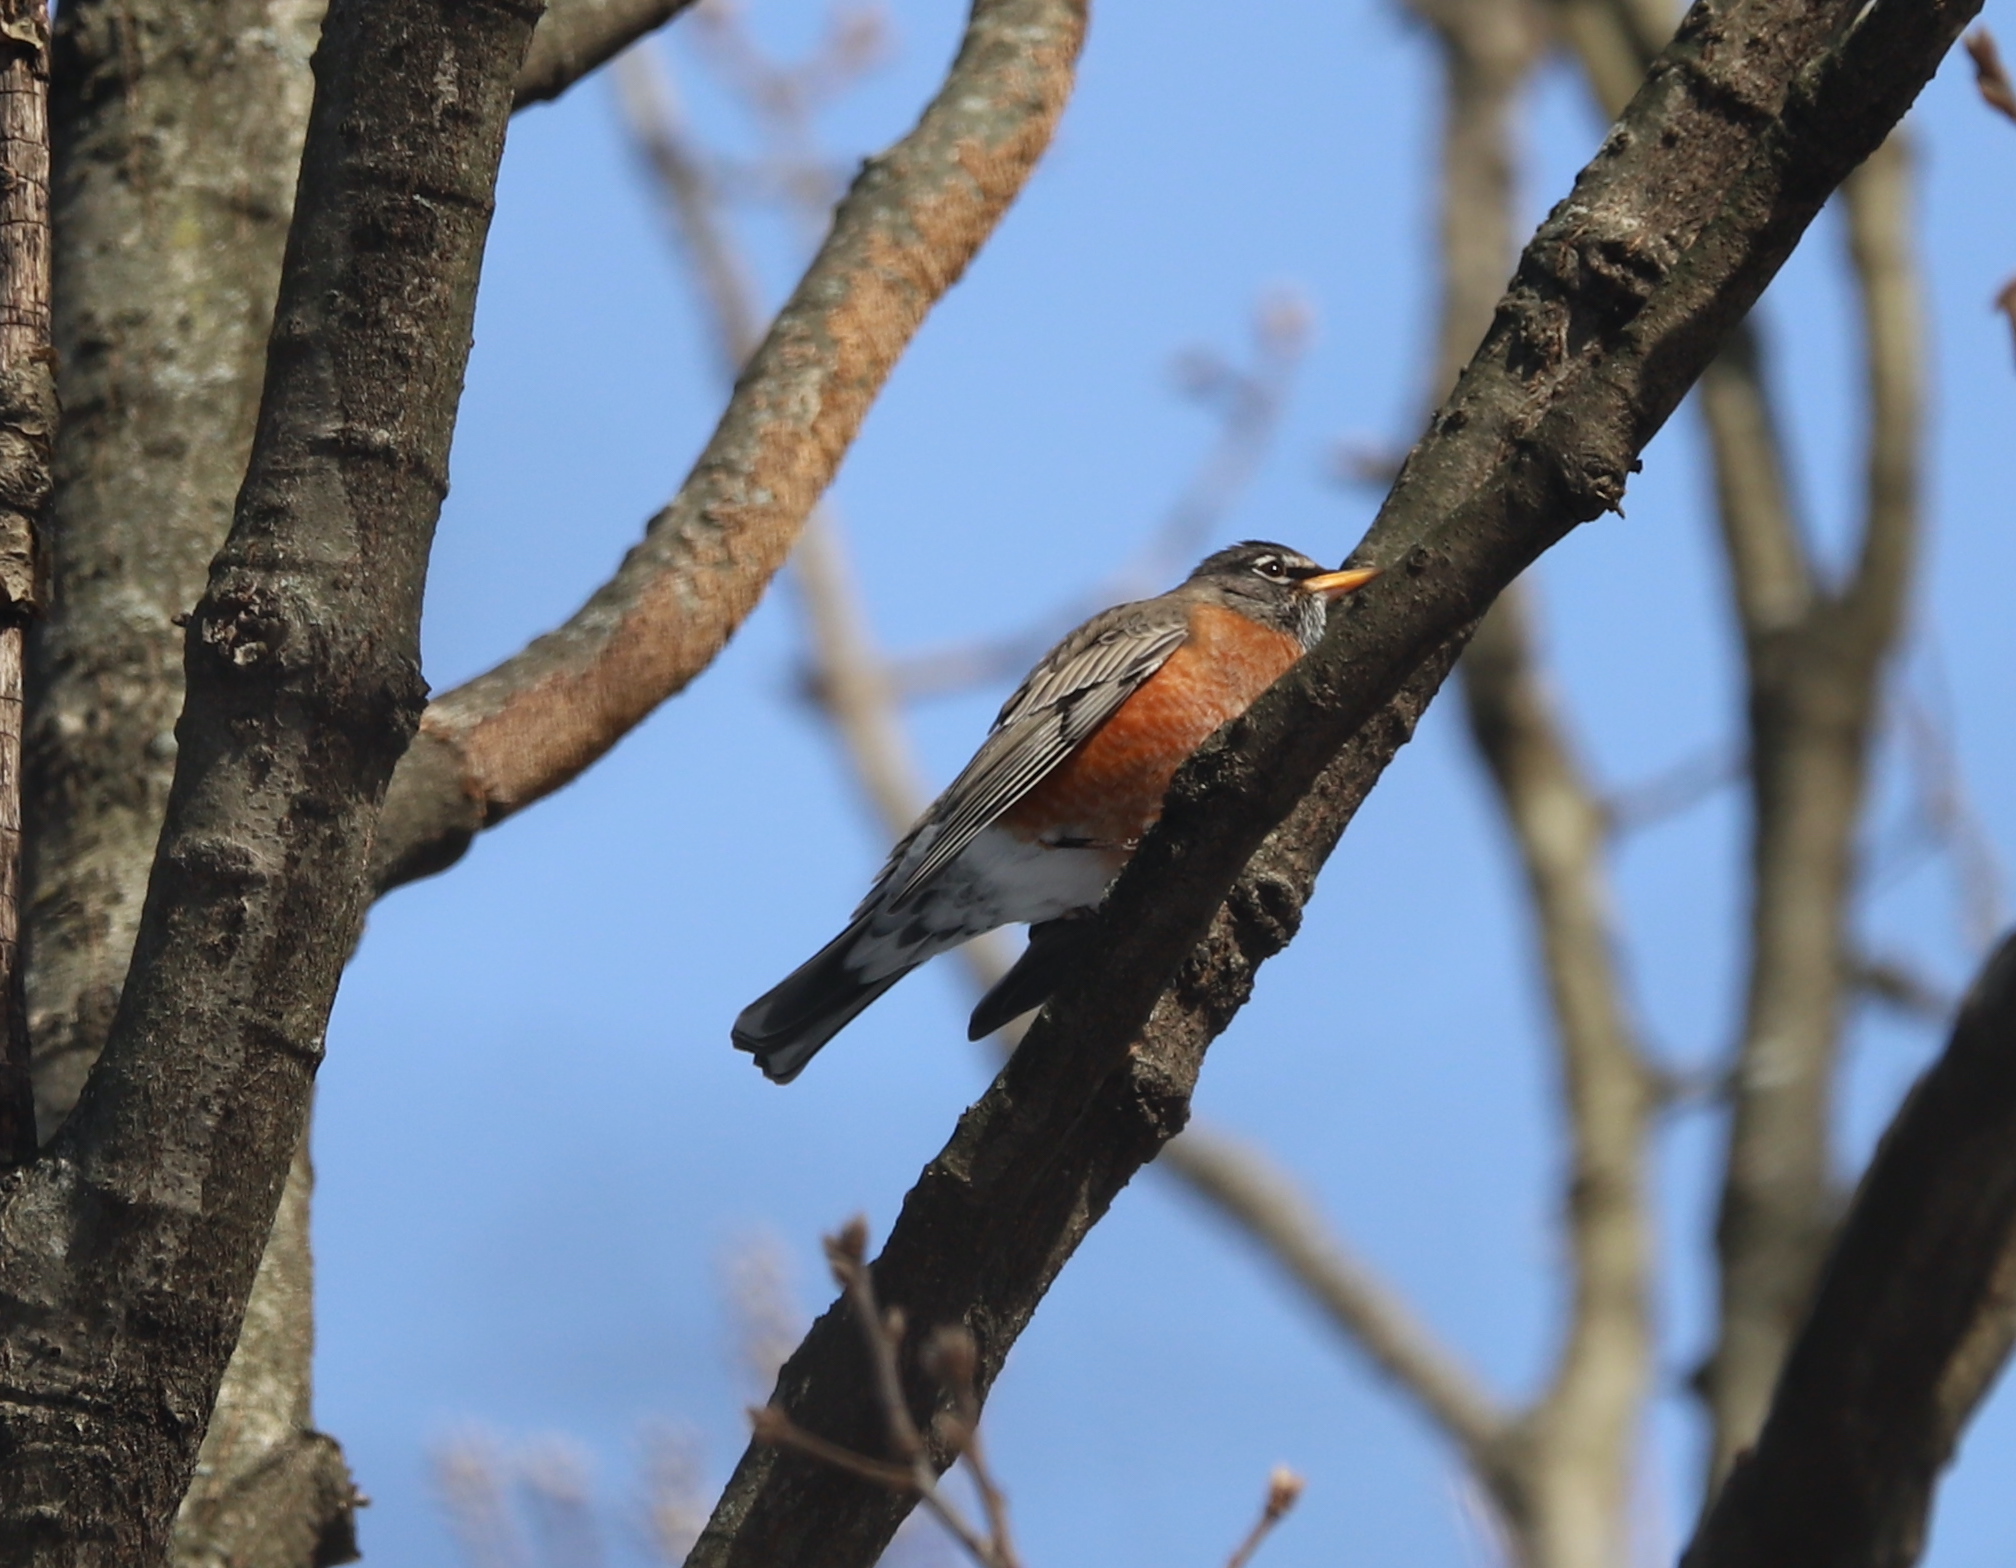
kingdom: Animalia
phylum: Chordata
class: Aves
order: Passeriformes
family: Turdidae
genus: Turdus
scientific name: Turdus migratorius
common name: American robin
